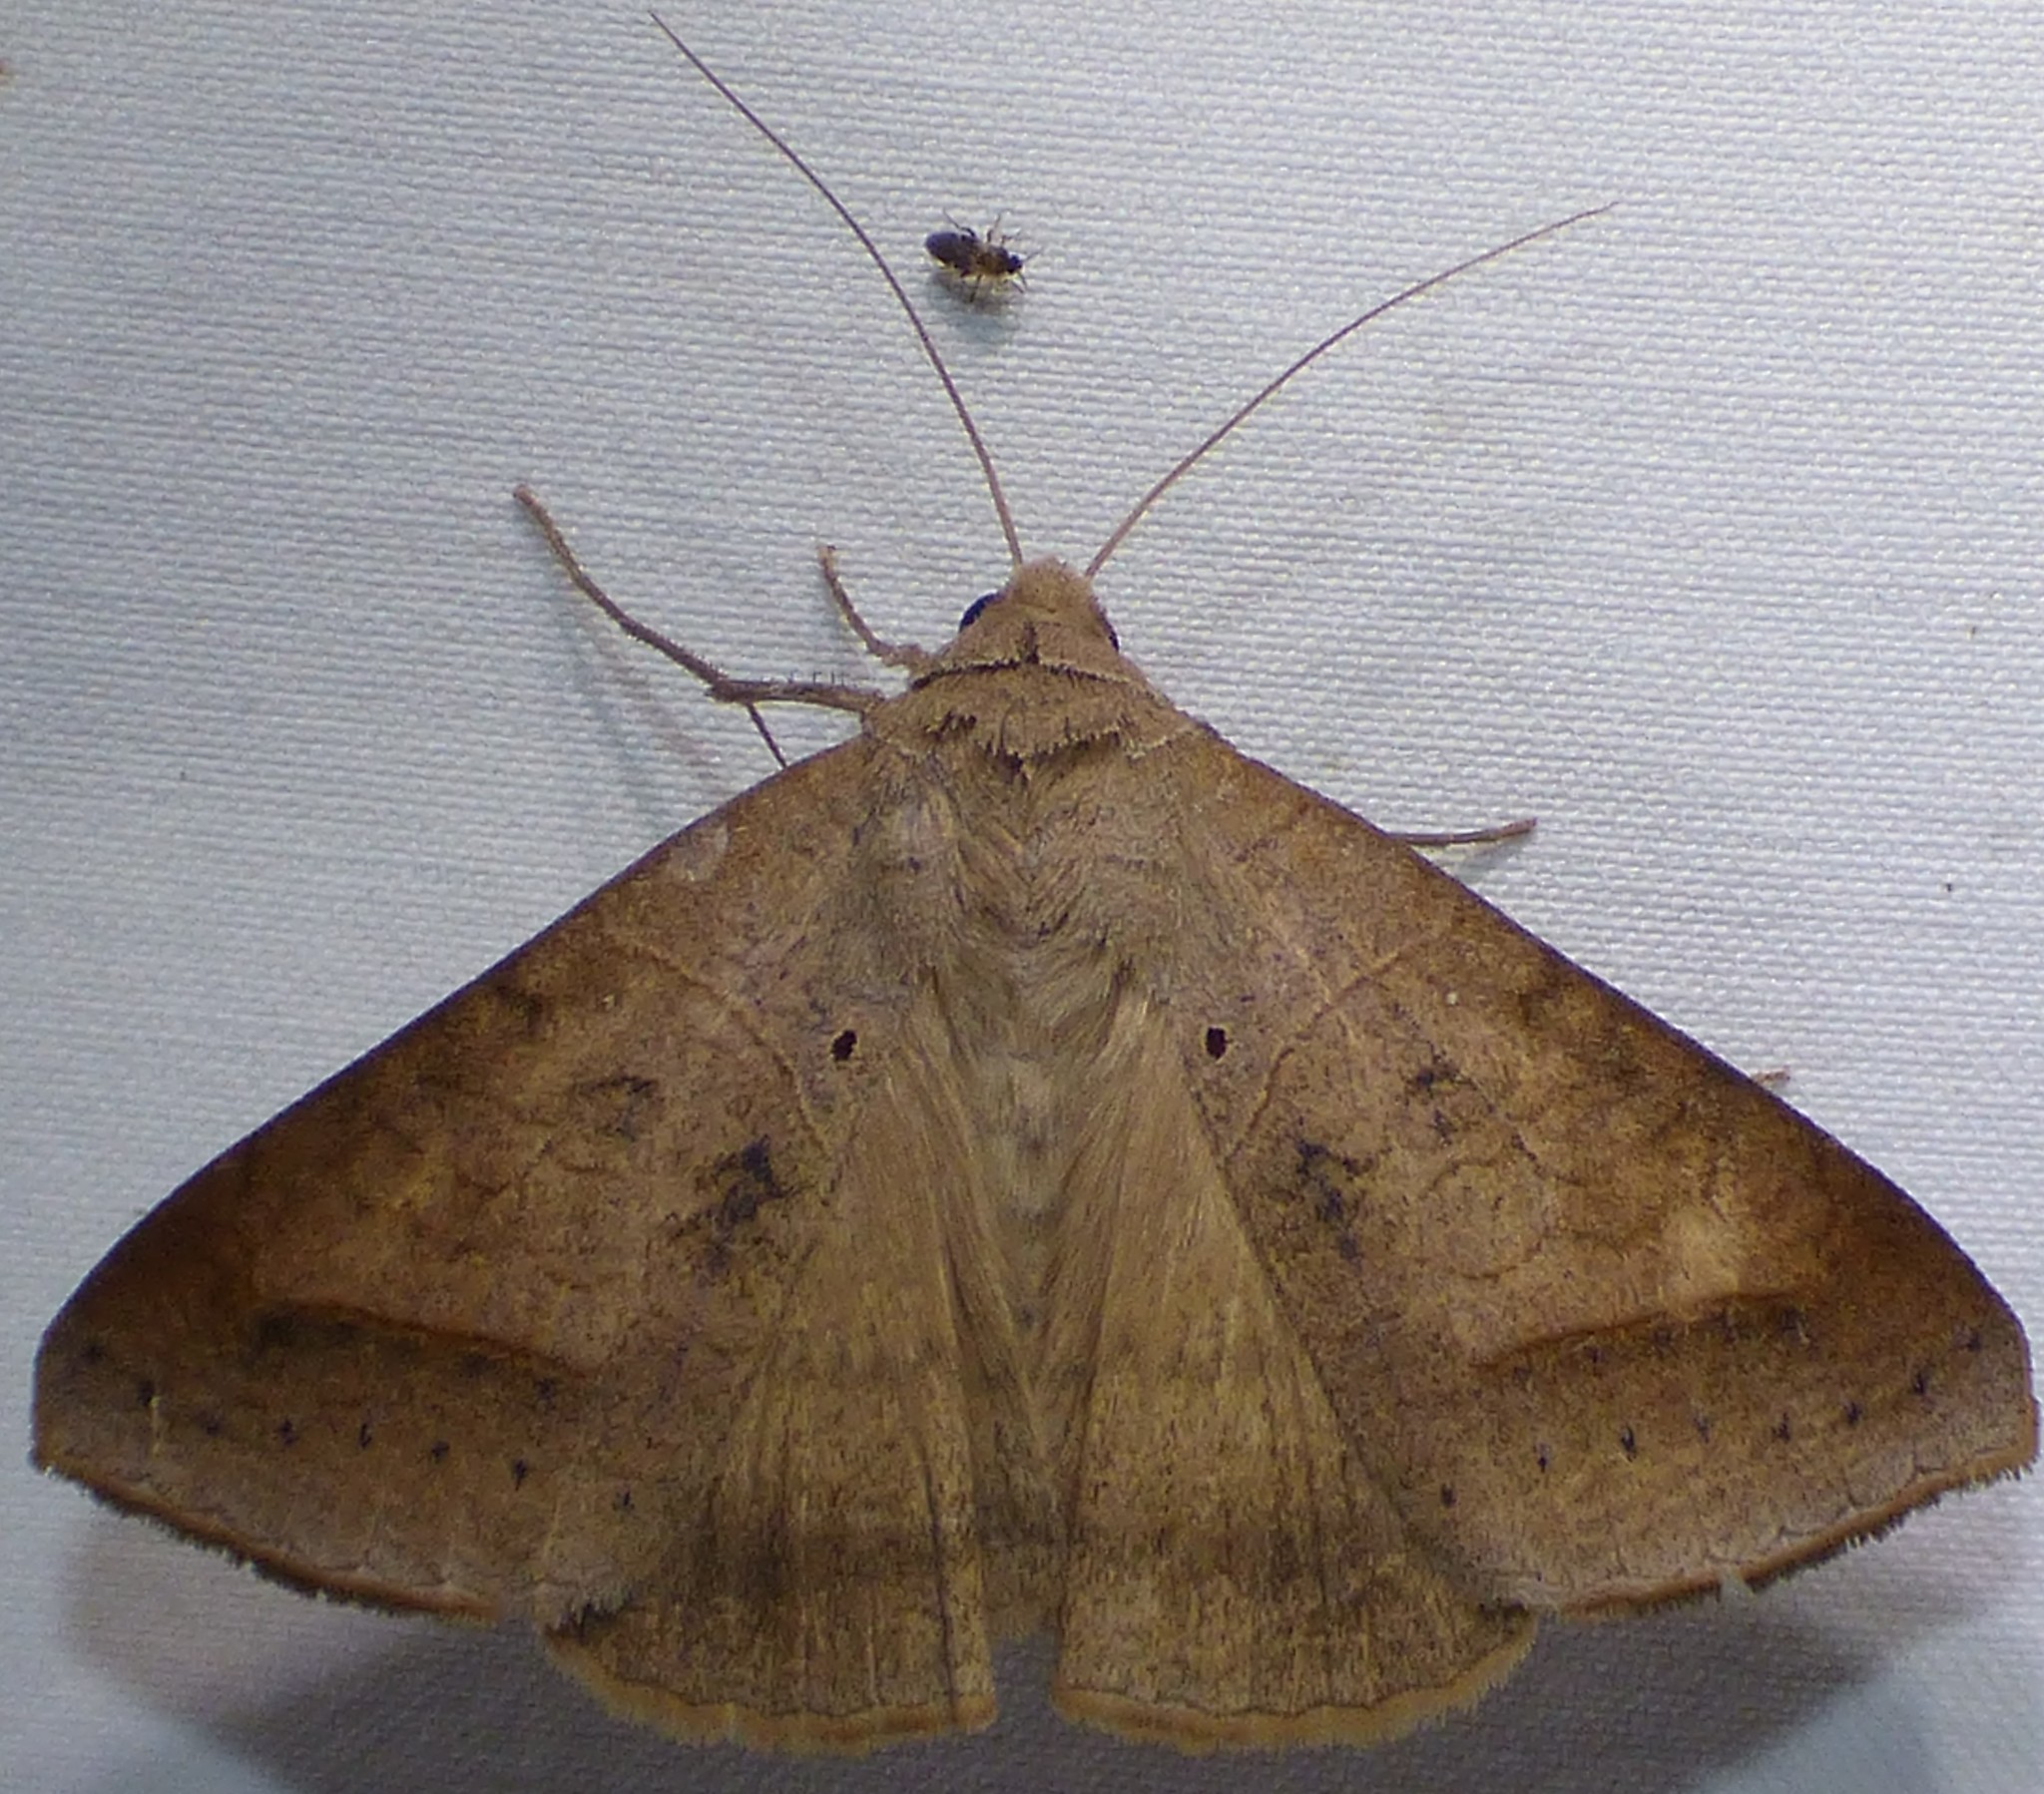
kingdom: Animalia
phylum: Arthropoda
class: Insecta
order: Lepidoptera
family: Erebidae
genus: Mocis
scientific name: Mocis marcida
